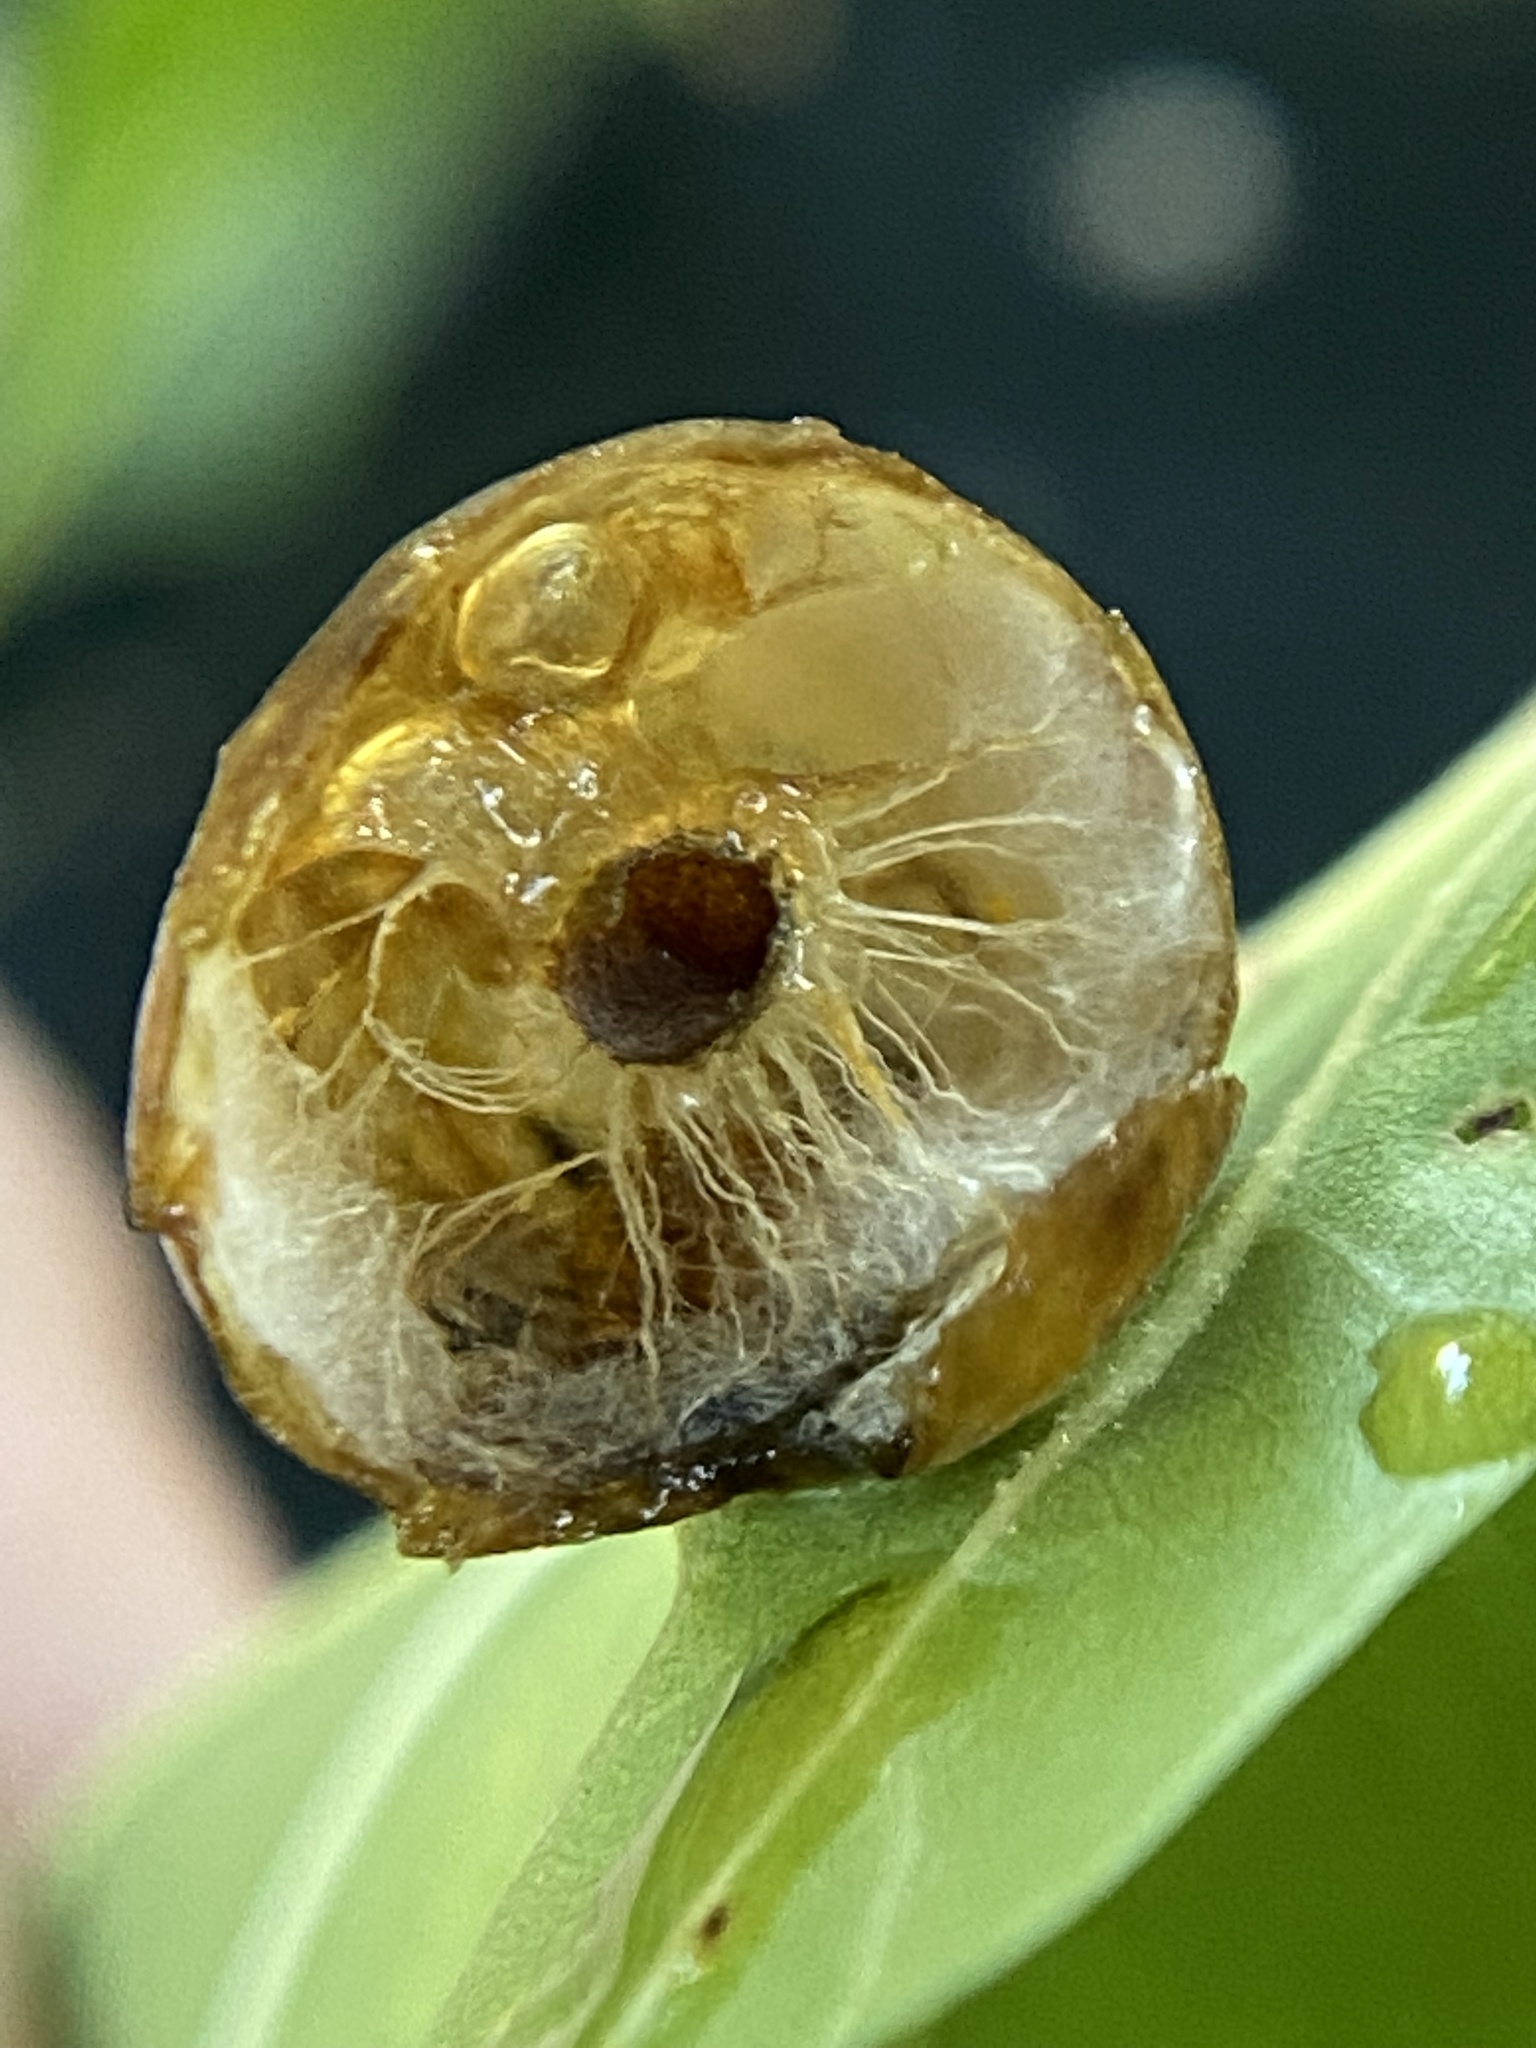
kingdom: Animalia
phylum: Arthropoda
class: Insecta
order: Hymenoptera
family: Cynipidae
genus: Amphibolips
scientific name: Amphibolips
